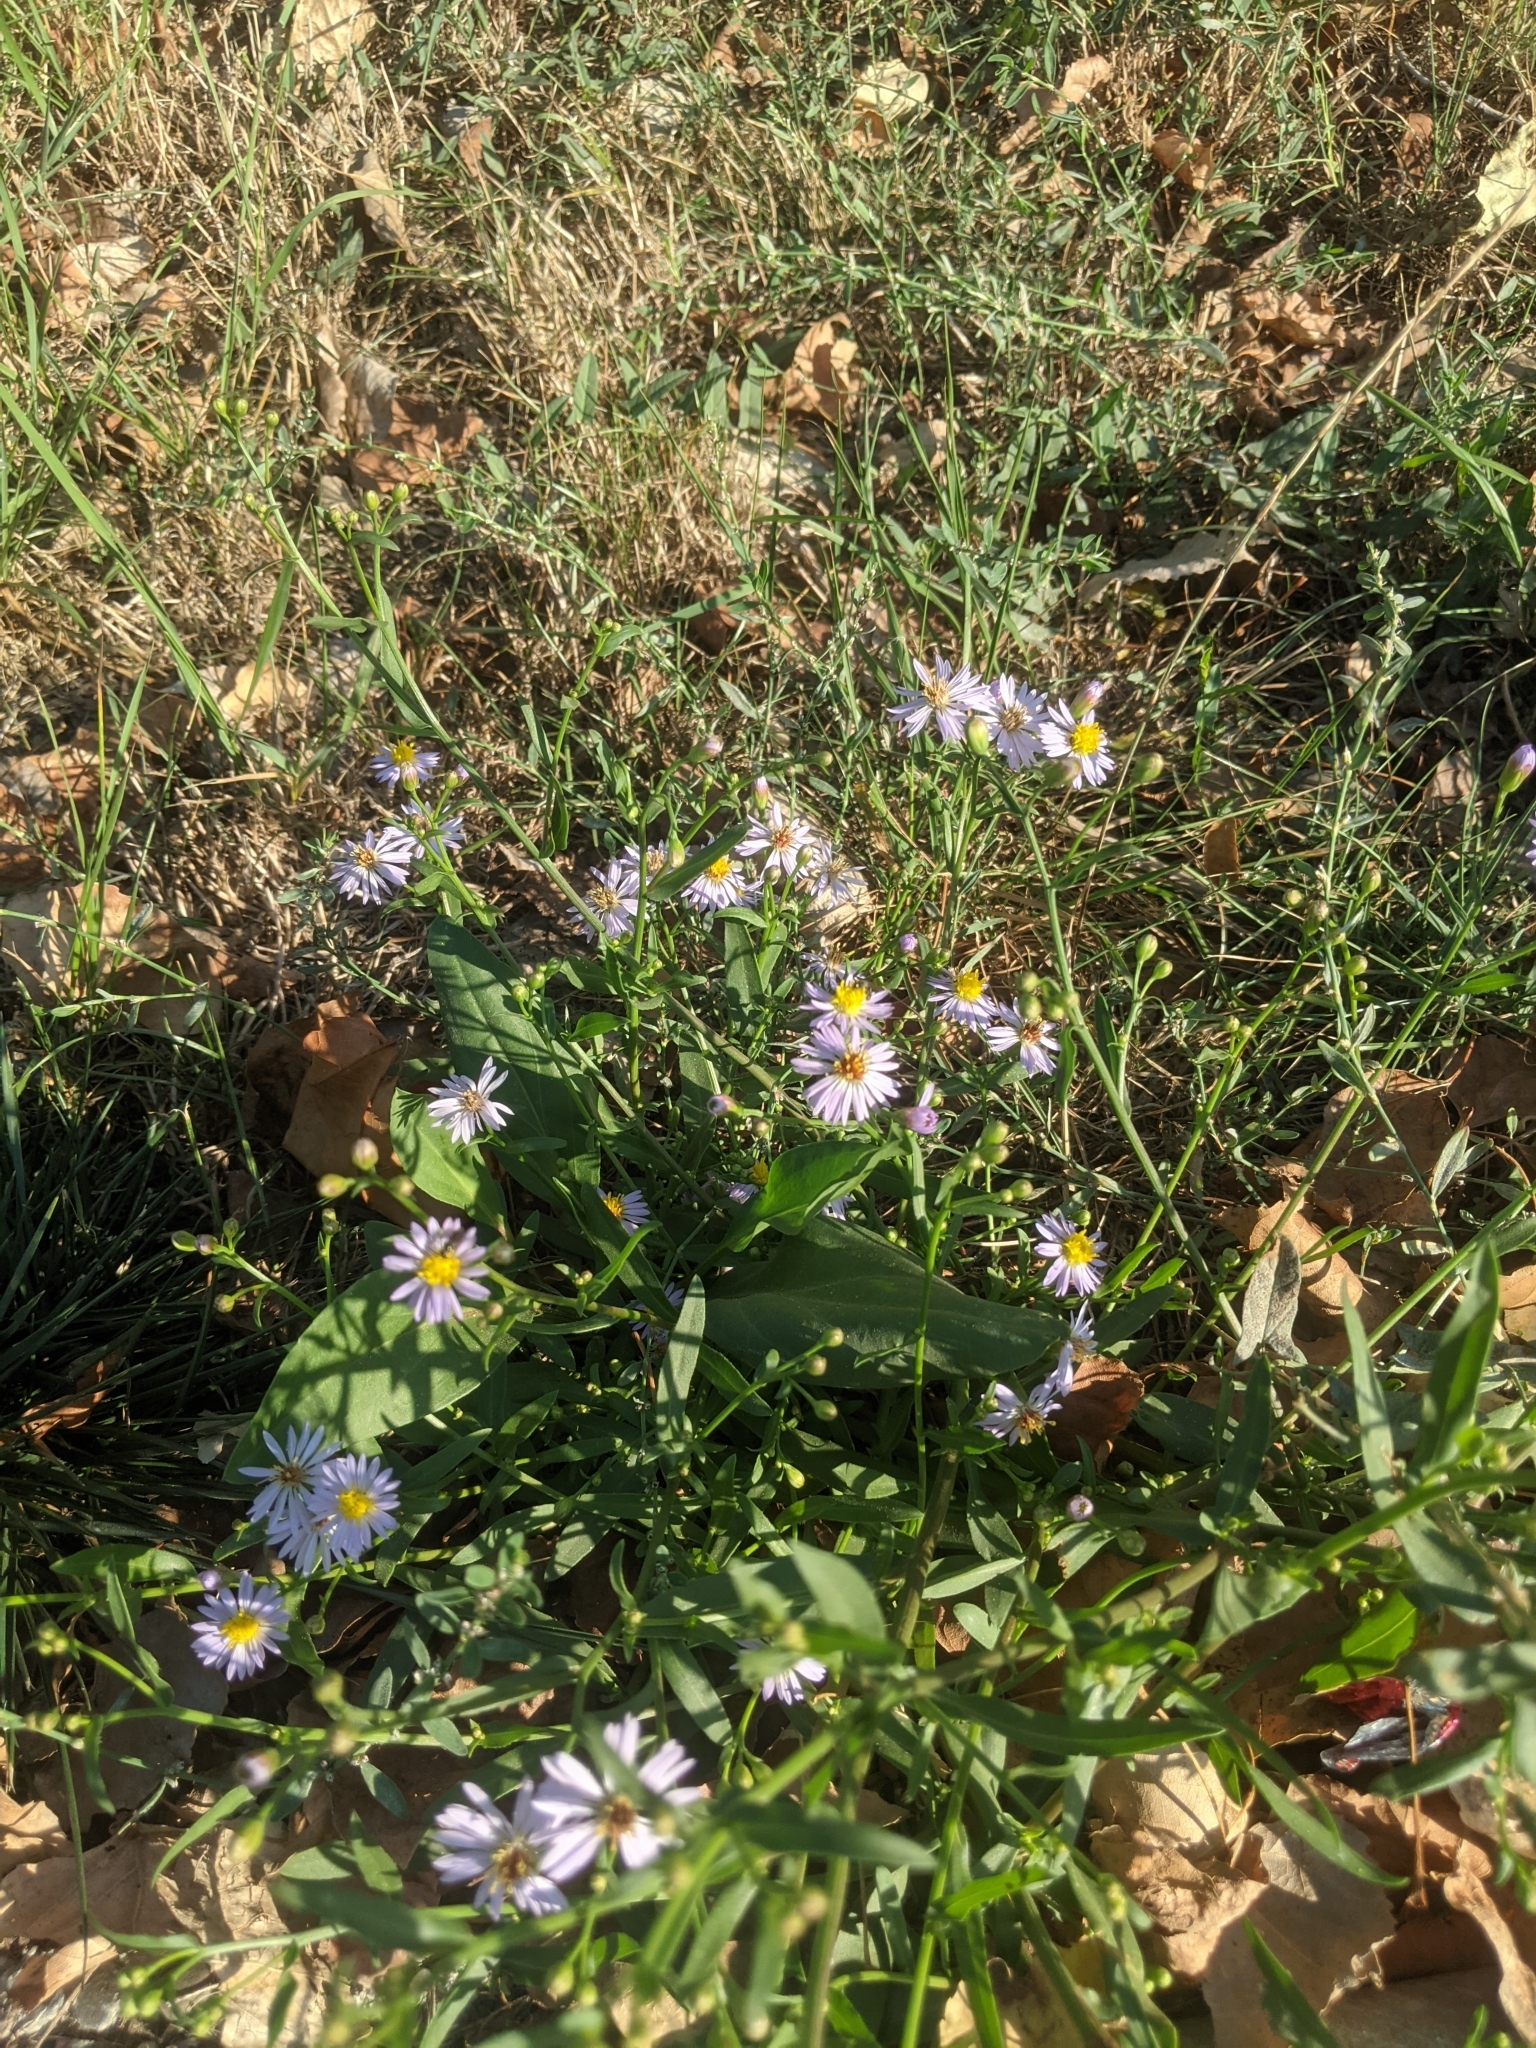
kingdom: Plantae
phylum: Tracheophyta
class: Magnoliopsida
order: Asterales
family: Asteraceae
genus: Tripolium
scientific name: Tripolium pannonicum
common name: Sea aster
